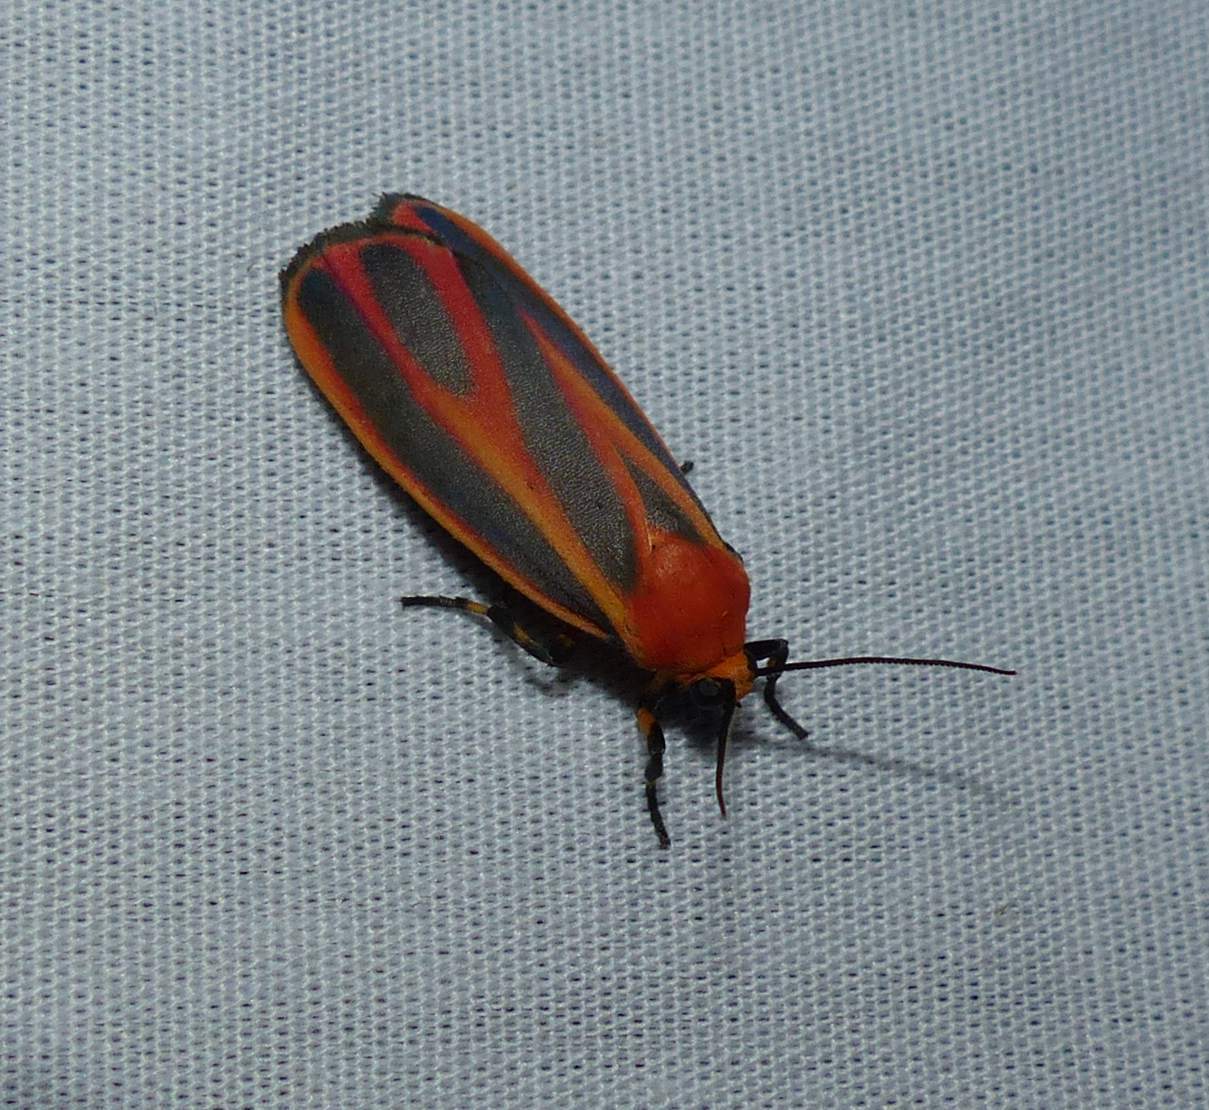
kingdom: Animalia
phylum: Arthropoda
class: Insecta
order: Lepidoptera
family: Erebidae
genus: Hypoprepia
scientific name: Hypoprepia miniata
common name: Scarlet-winged lichen moth
